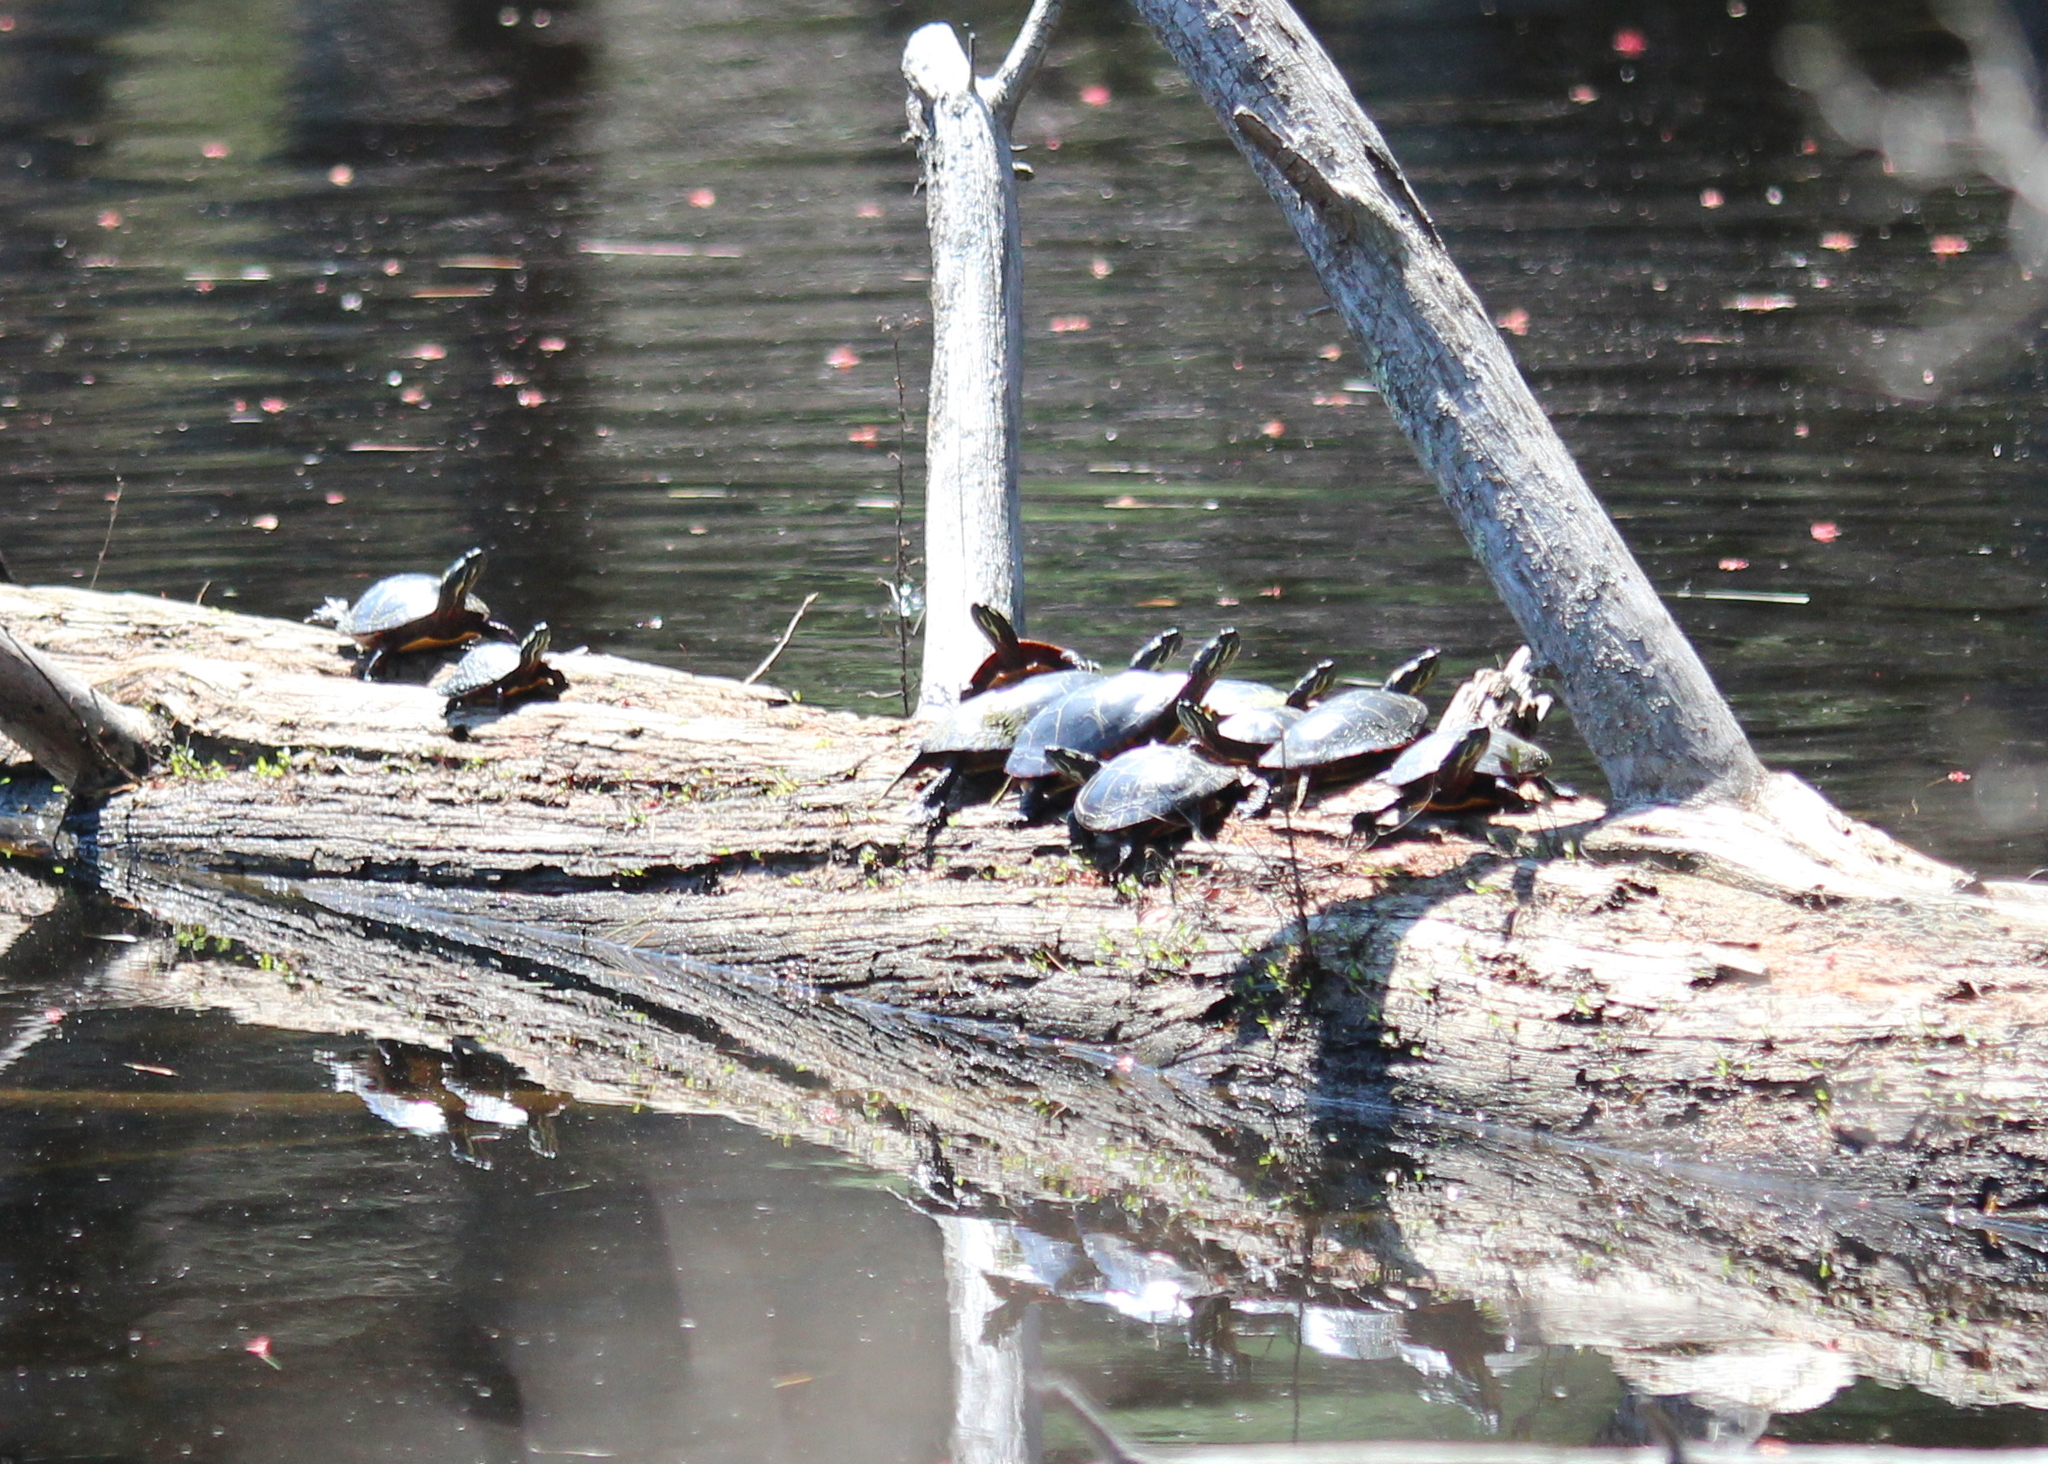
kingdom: Animalia
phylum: Chordata
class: Testudines
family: Emydidae
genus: Chrysemys
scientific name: Chrysemys picta
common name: Painted turtle
